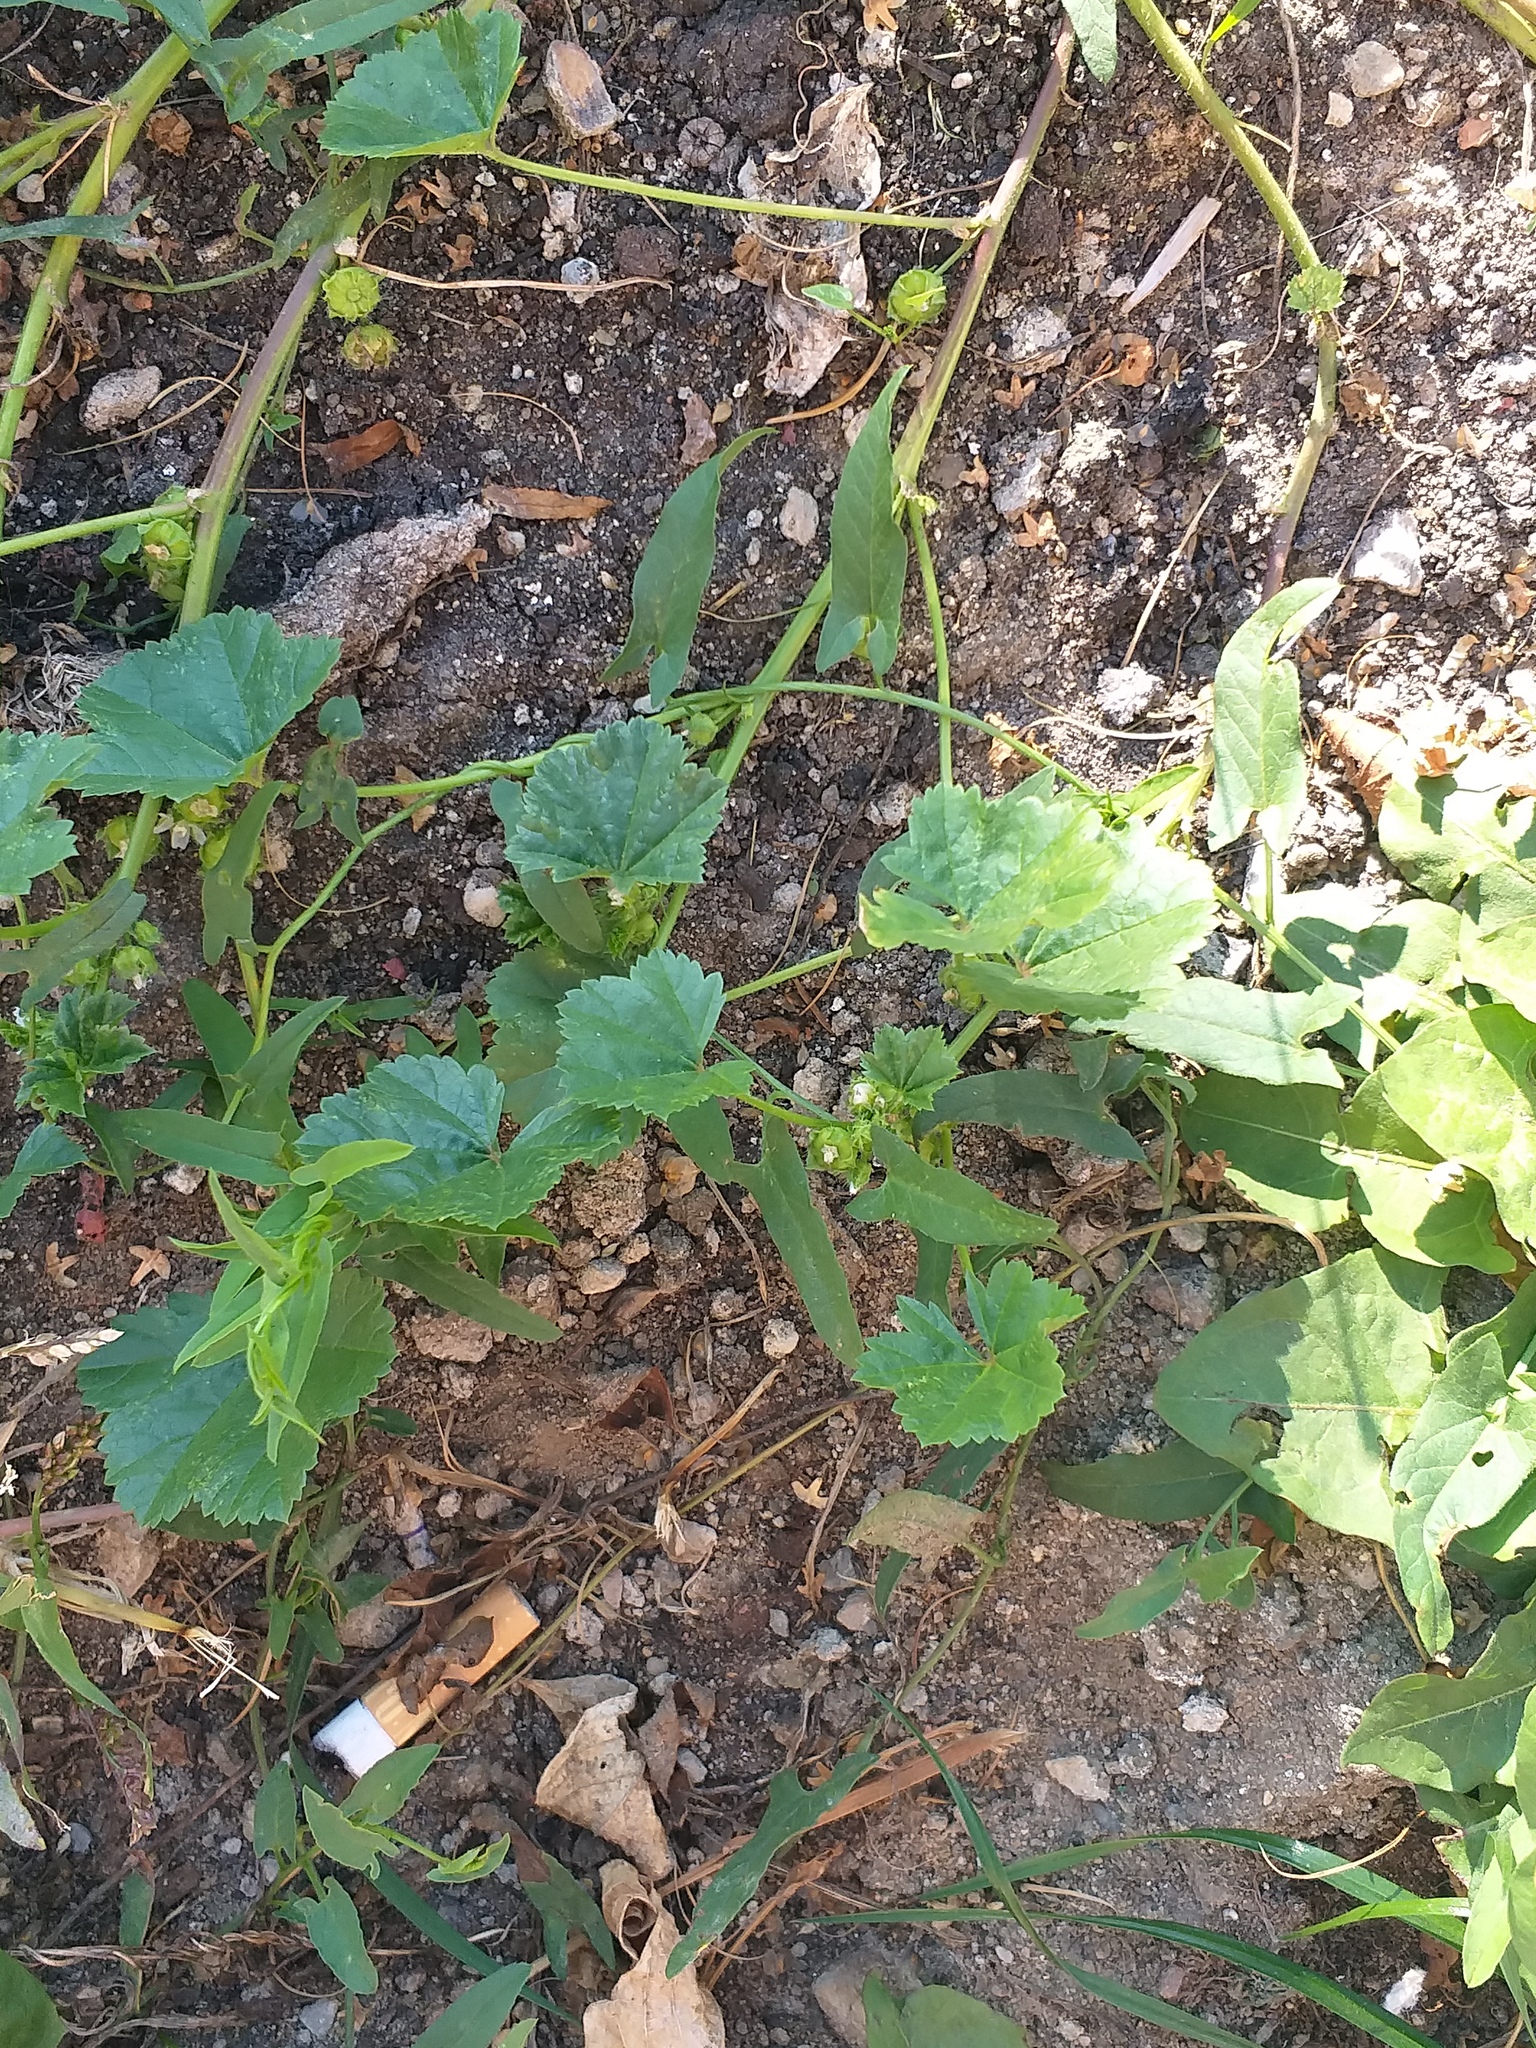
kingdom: Plantae
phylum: Tracheophyta
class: Magnoliopsida
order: Malvales
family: Malvaceae
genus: Malva
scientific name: Malva pusilla
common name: Small mallow
